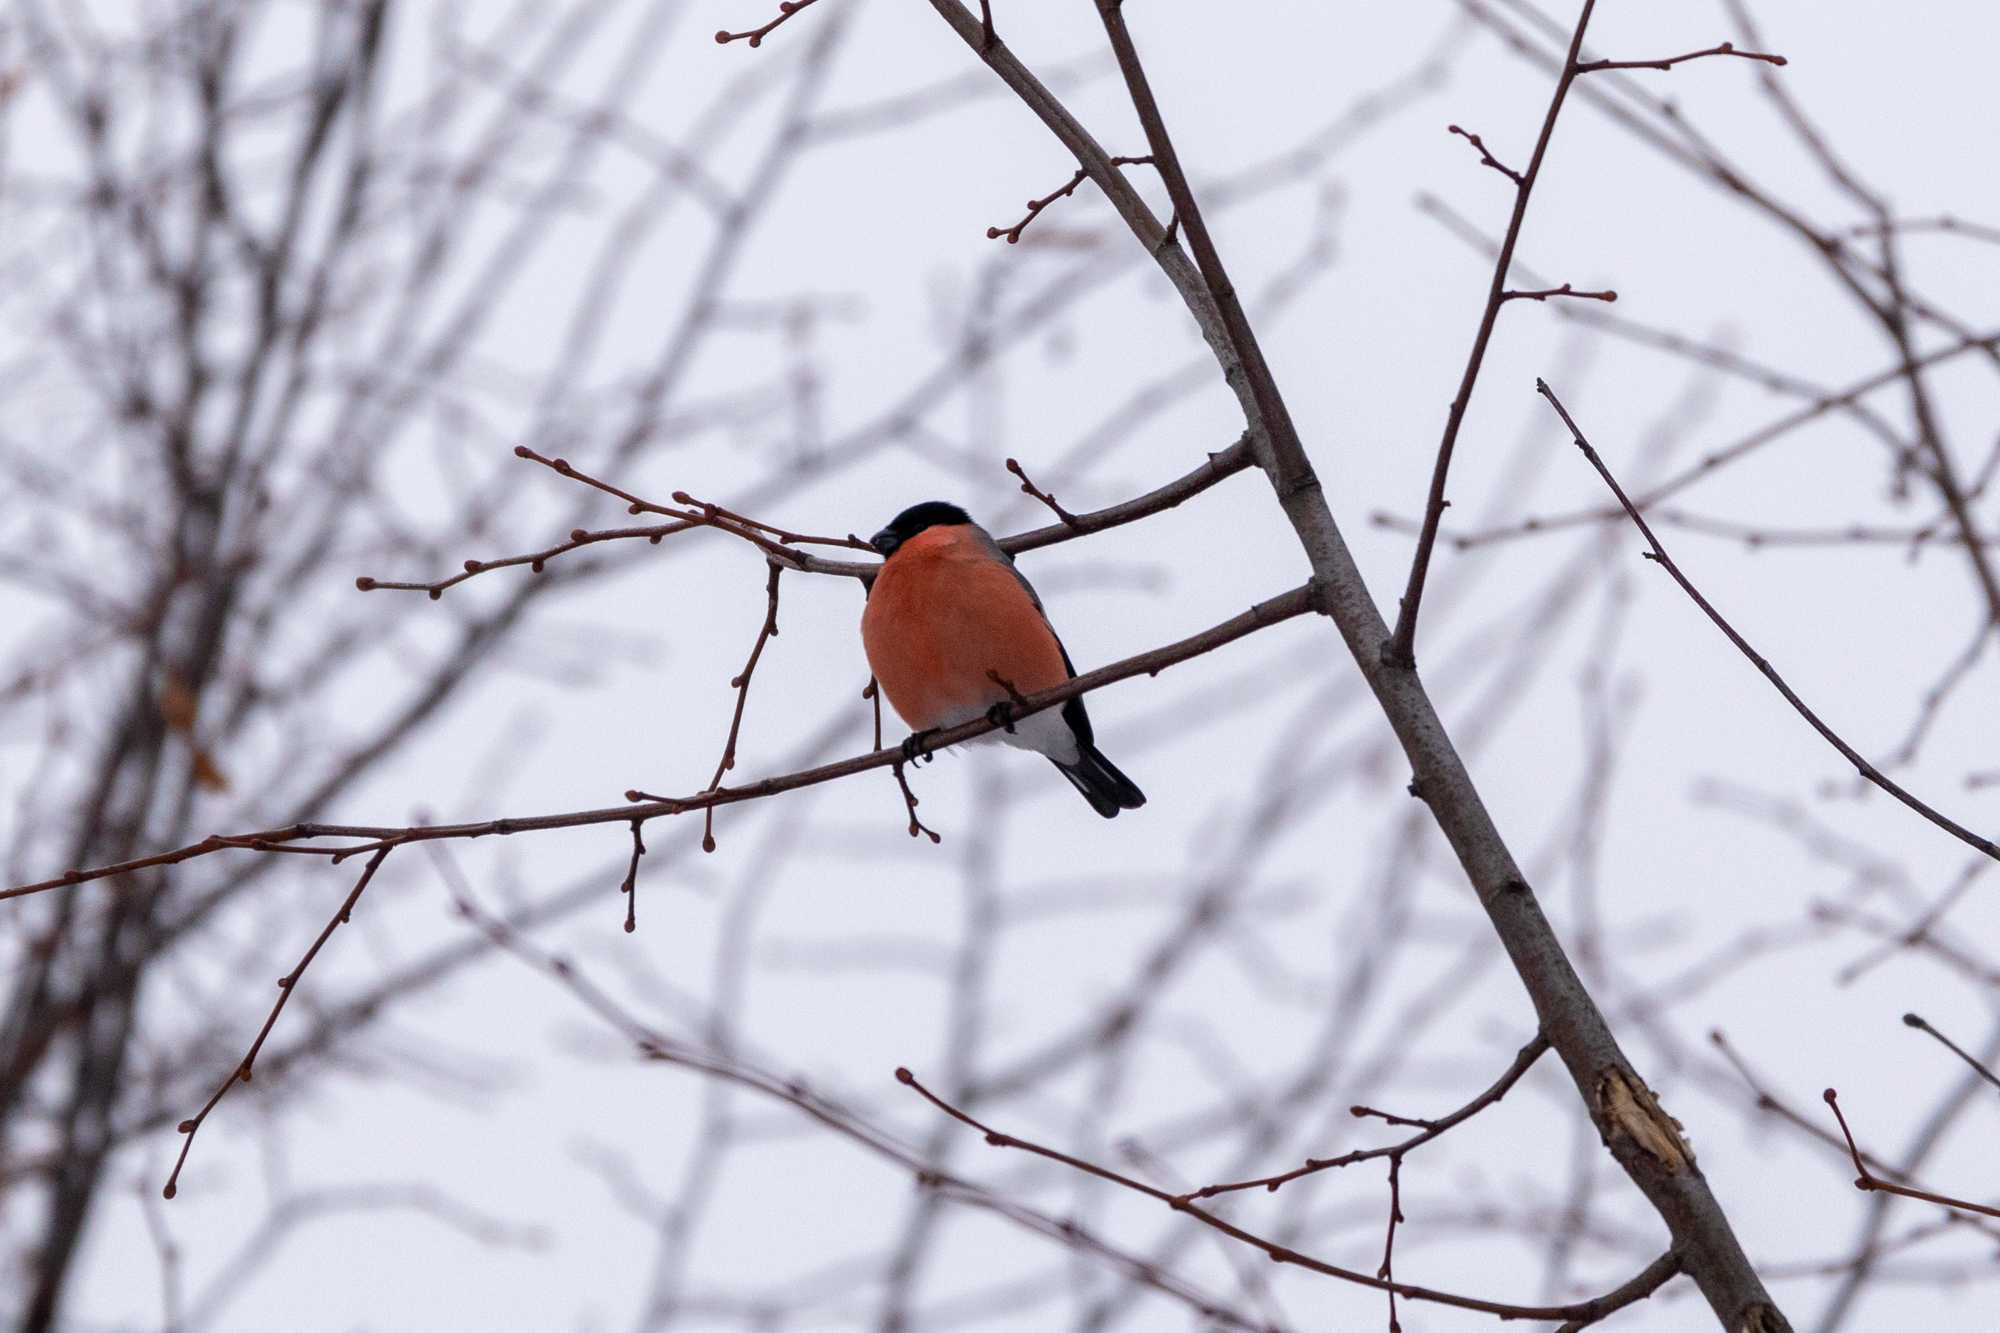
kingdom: Animalia
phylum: Chordata
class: Aves
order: Passeriformes
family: Fringillidae
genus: Pyrrhula
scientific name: Pyrrhula pyrrhula
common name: Eurasian bullfinch
